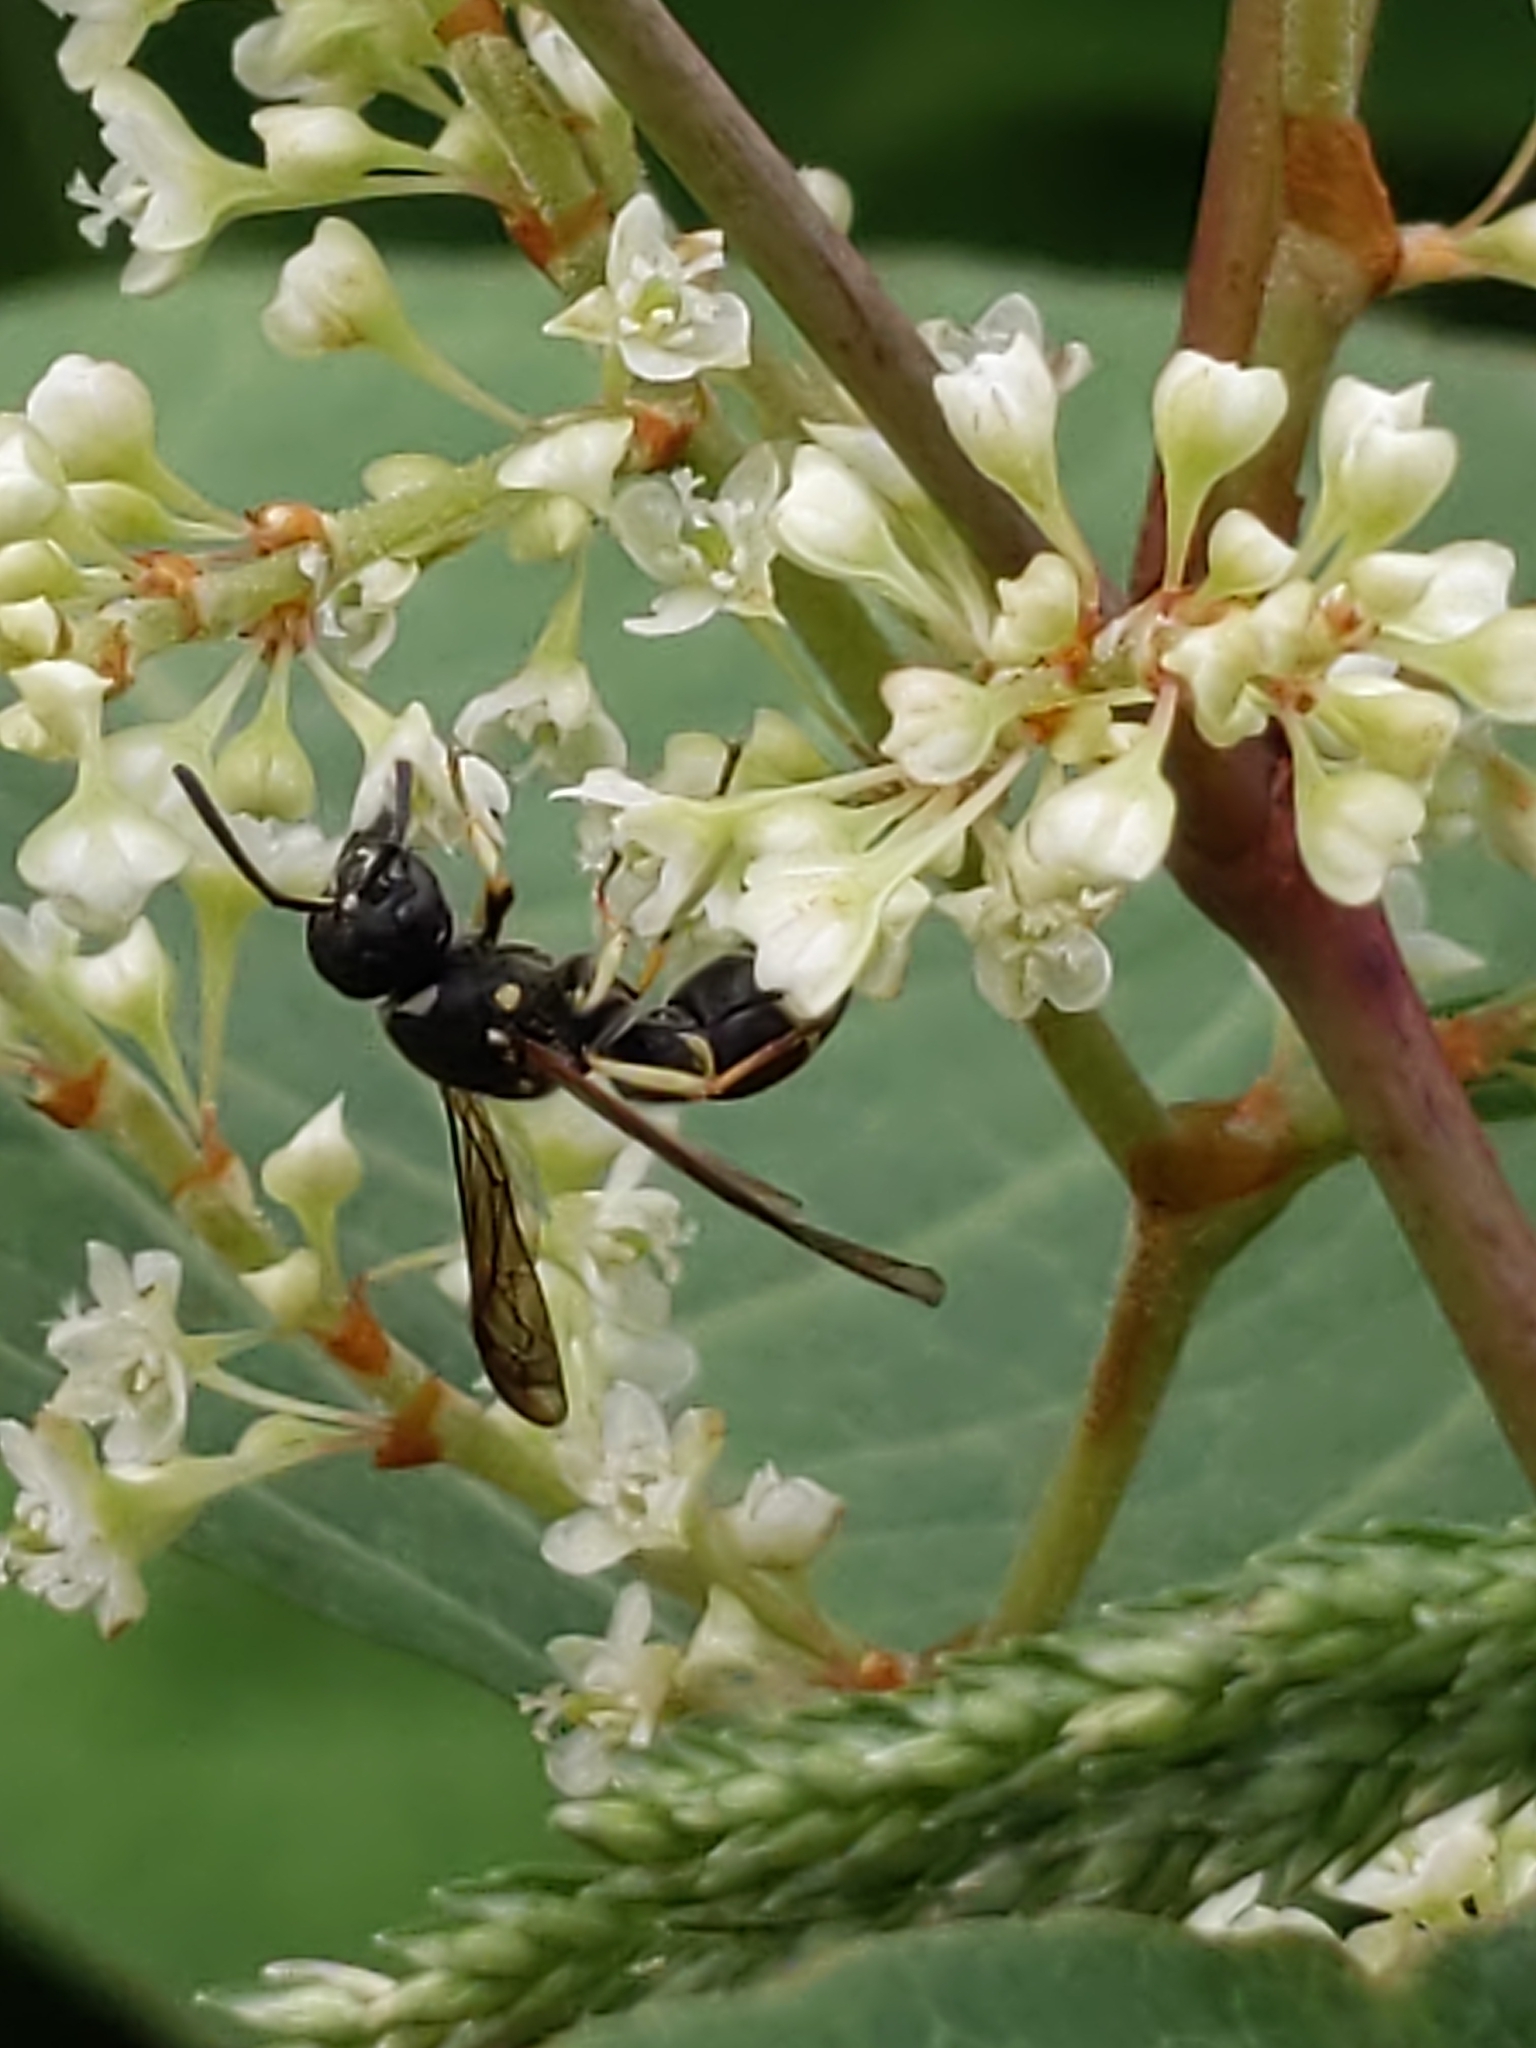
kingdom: Animalia
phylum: Arthropoda
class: Insecta
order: Hymenoptera
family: Vespidae
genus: Ancistrocerus
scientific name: Ancistrocerus adiabatus
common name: Bramble mason wasp
